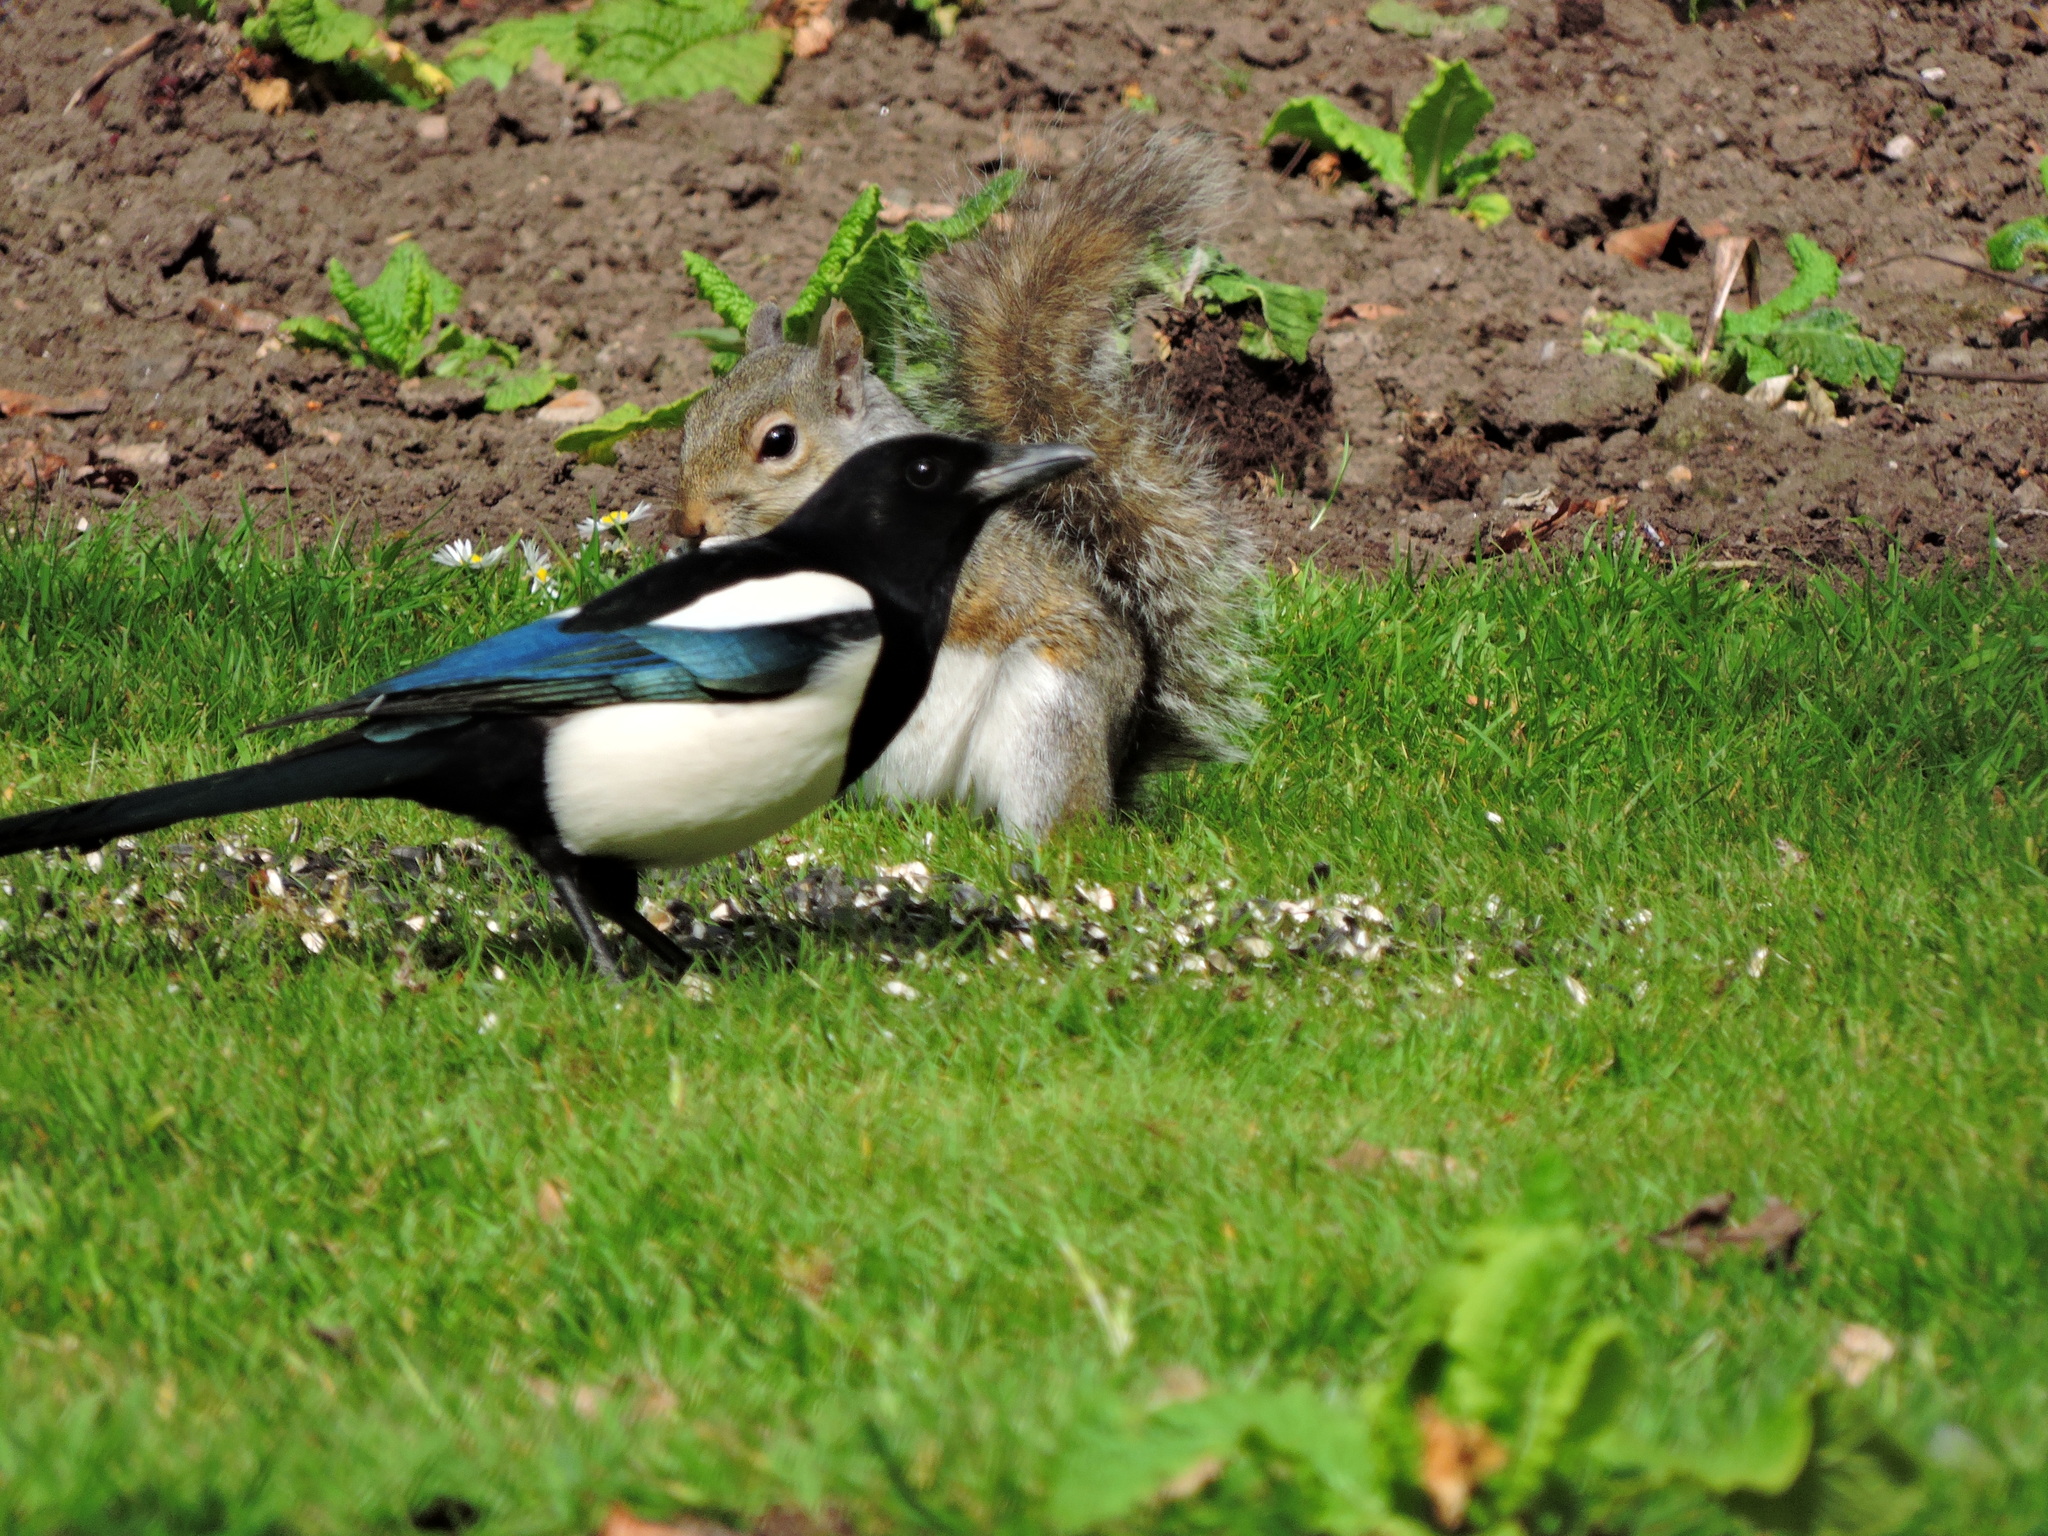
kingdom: Animalia
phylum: Chordata
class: Aves
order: Passeriformes
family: Corvidae
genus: Pica
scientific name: Pica pica
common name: Eurasian magpie
